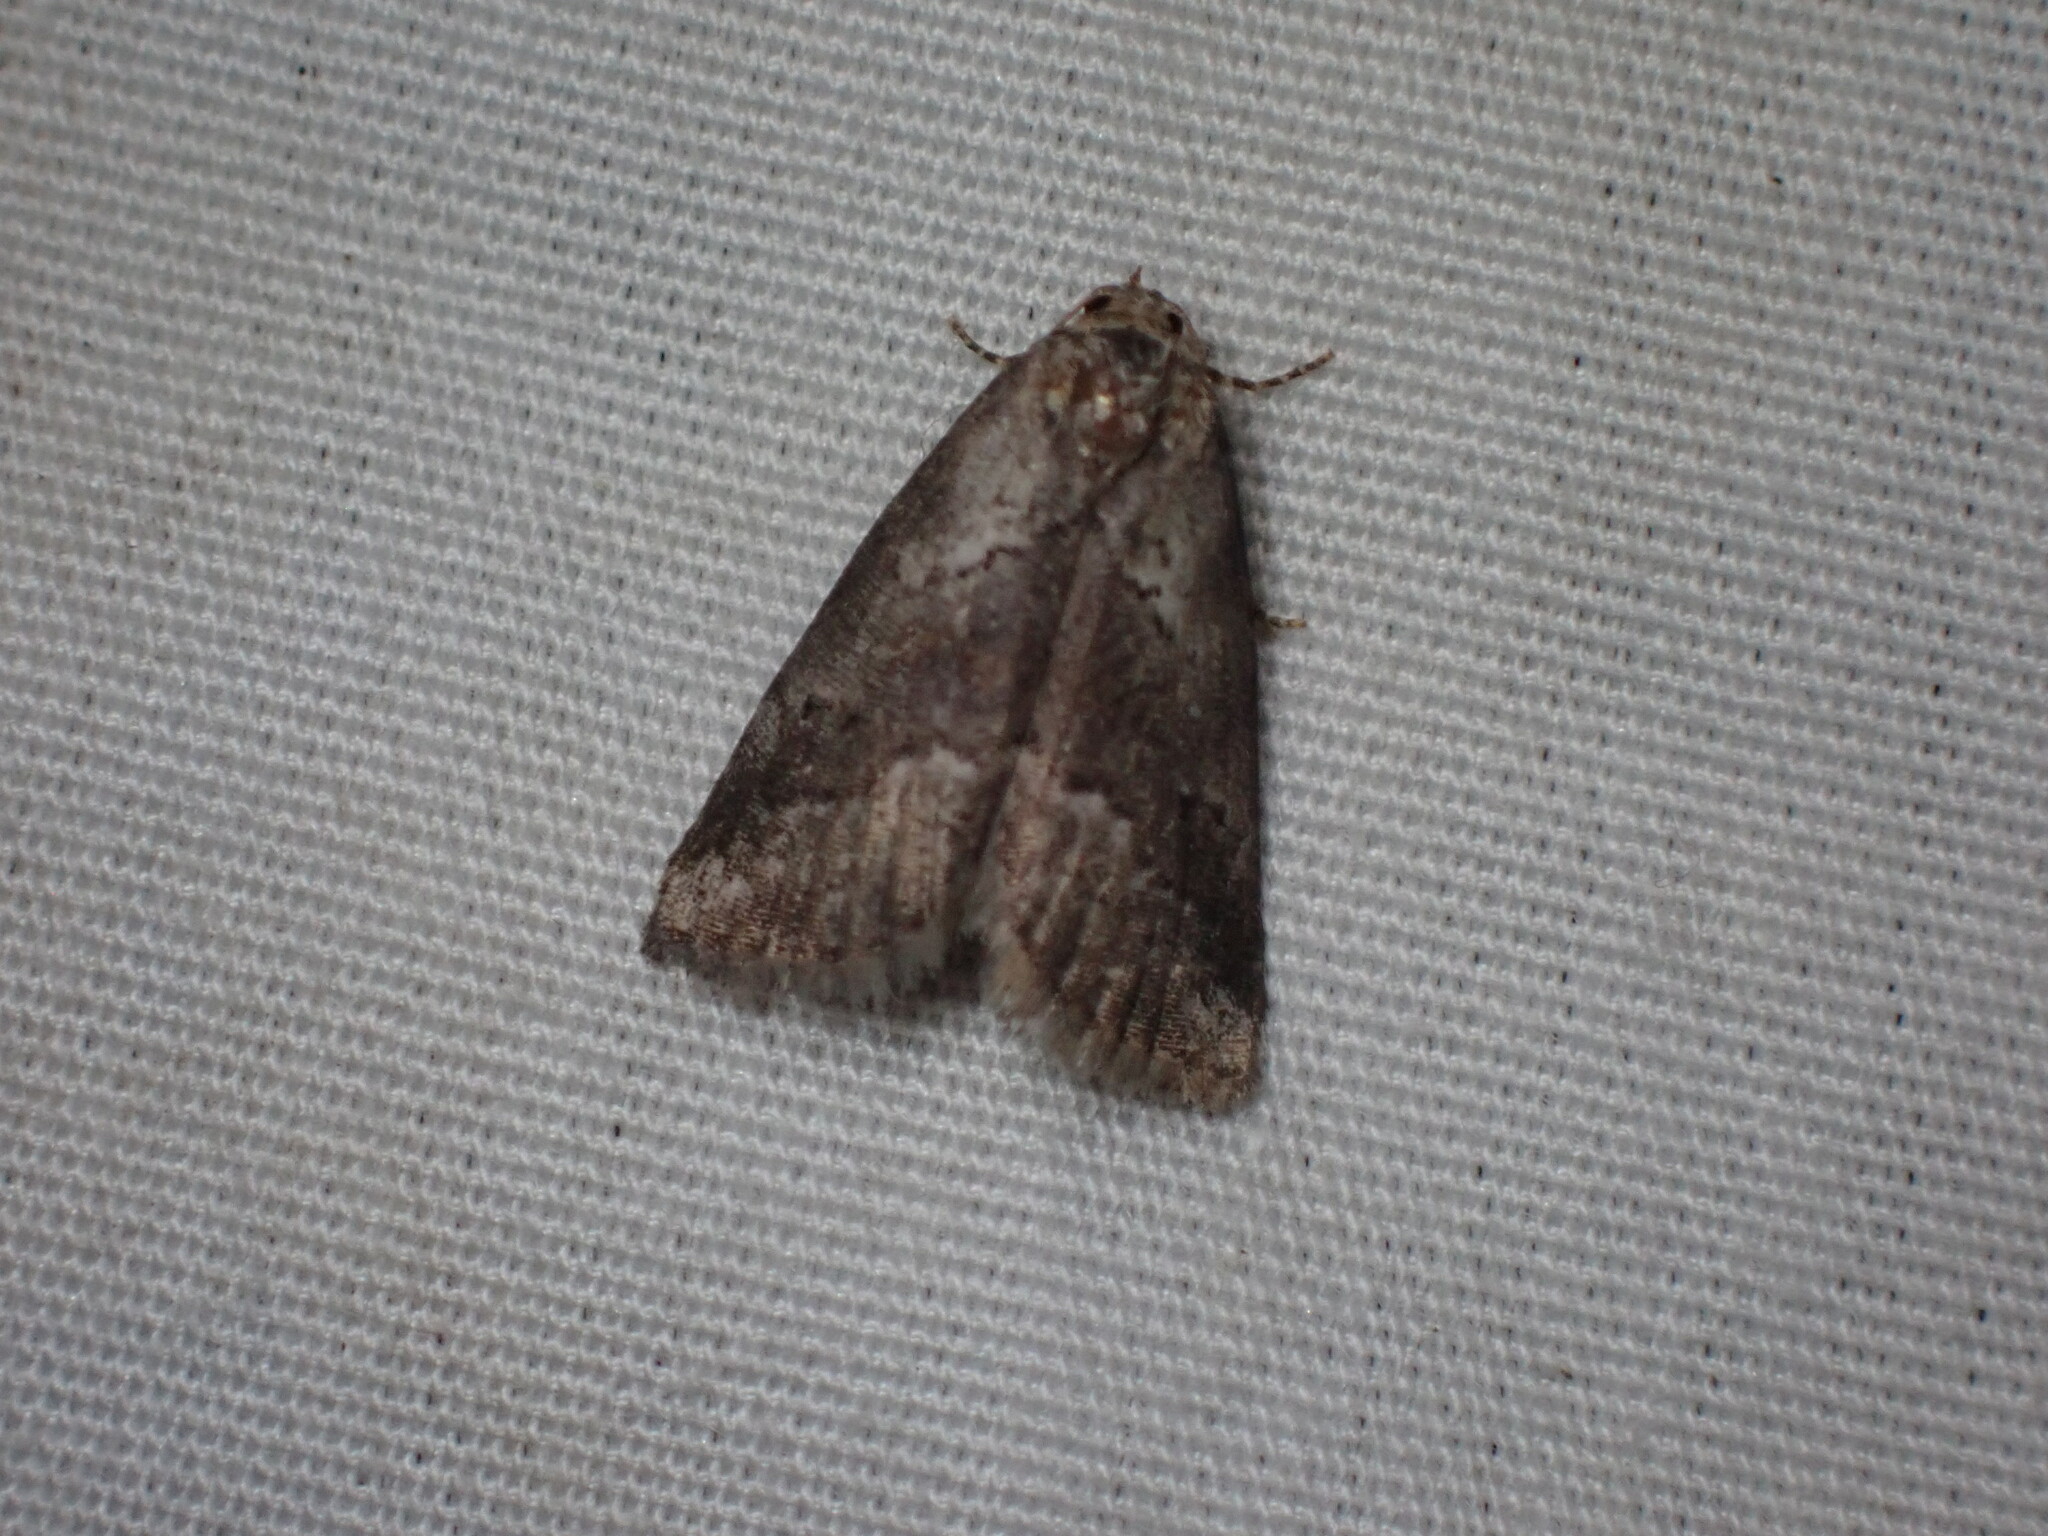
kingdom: Animalia
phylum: Arthropoda
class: Insecta
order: Lepidoptera
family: Erebidae
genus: Hyperstrotia
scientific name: Hyperstrotia nana
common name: White-lined graylet
